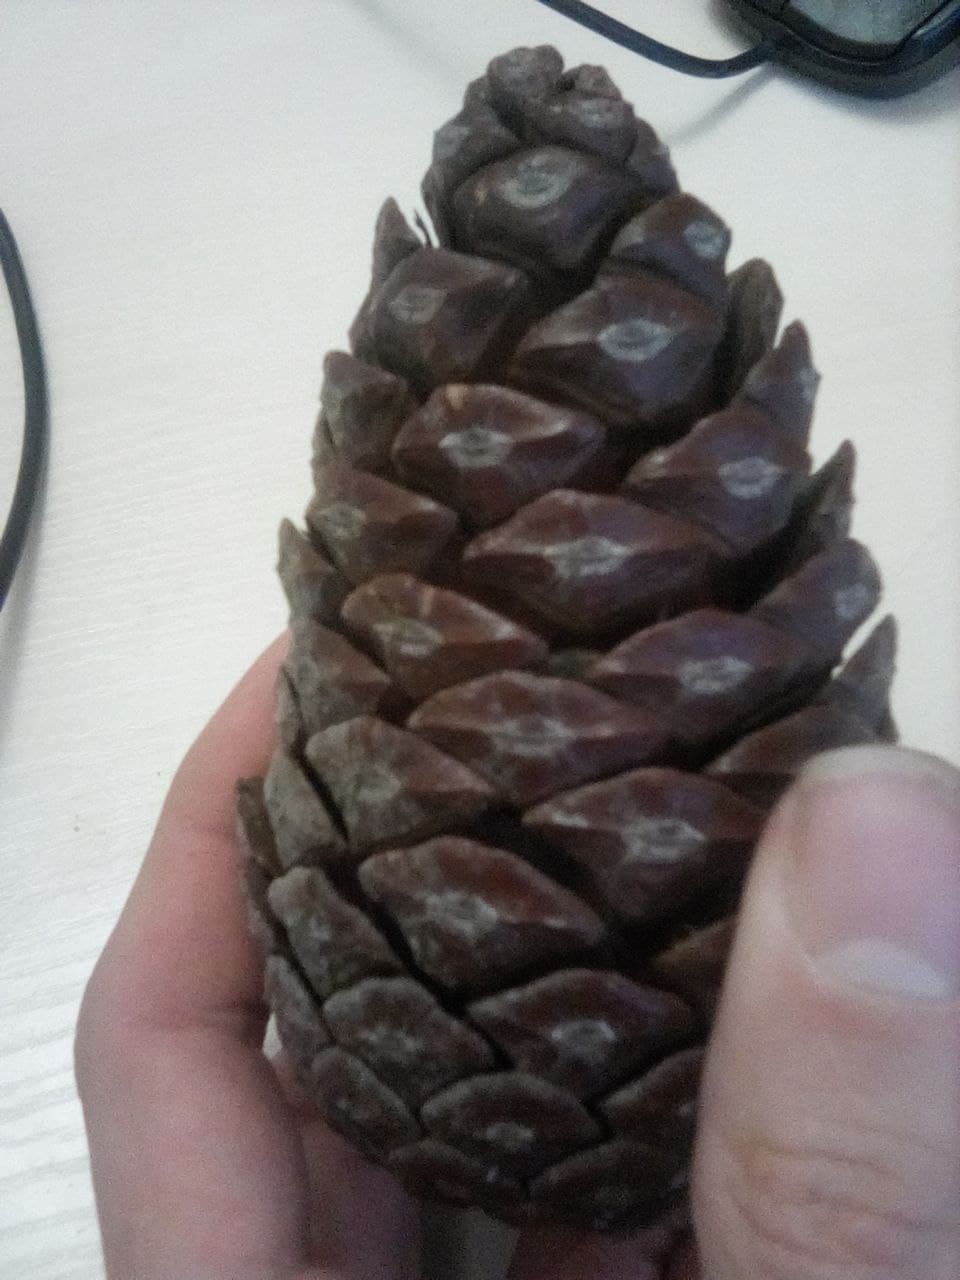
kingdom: Plantae
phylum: Tracheophyta
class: Pinopsida
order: Pinales
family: Pinaceae
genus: Pinus
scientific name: Pinus brutia
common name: Turkish pine
